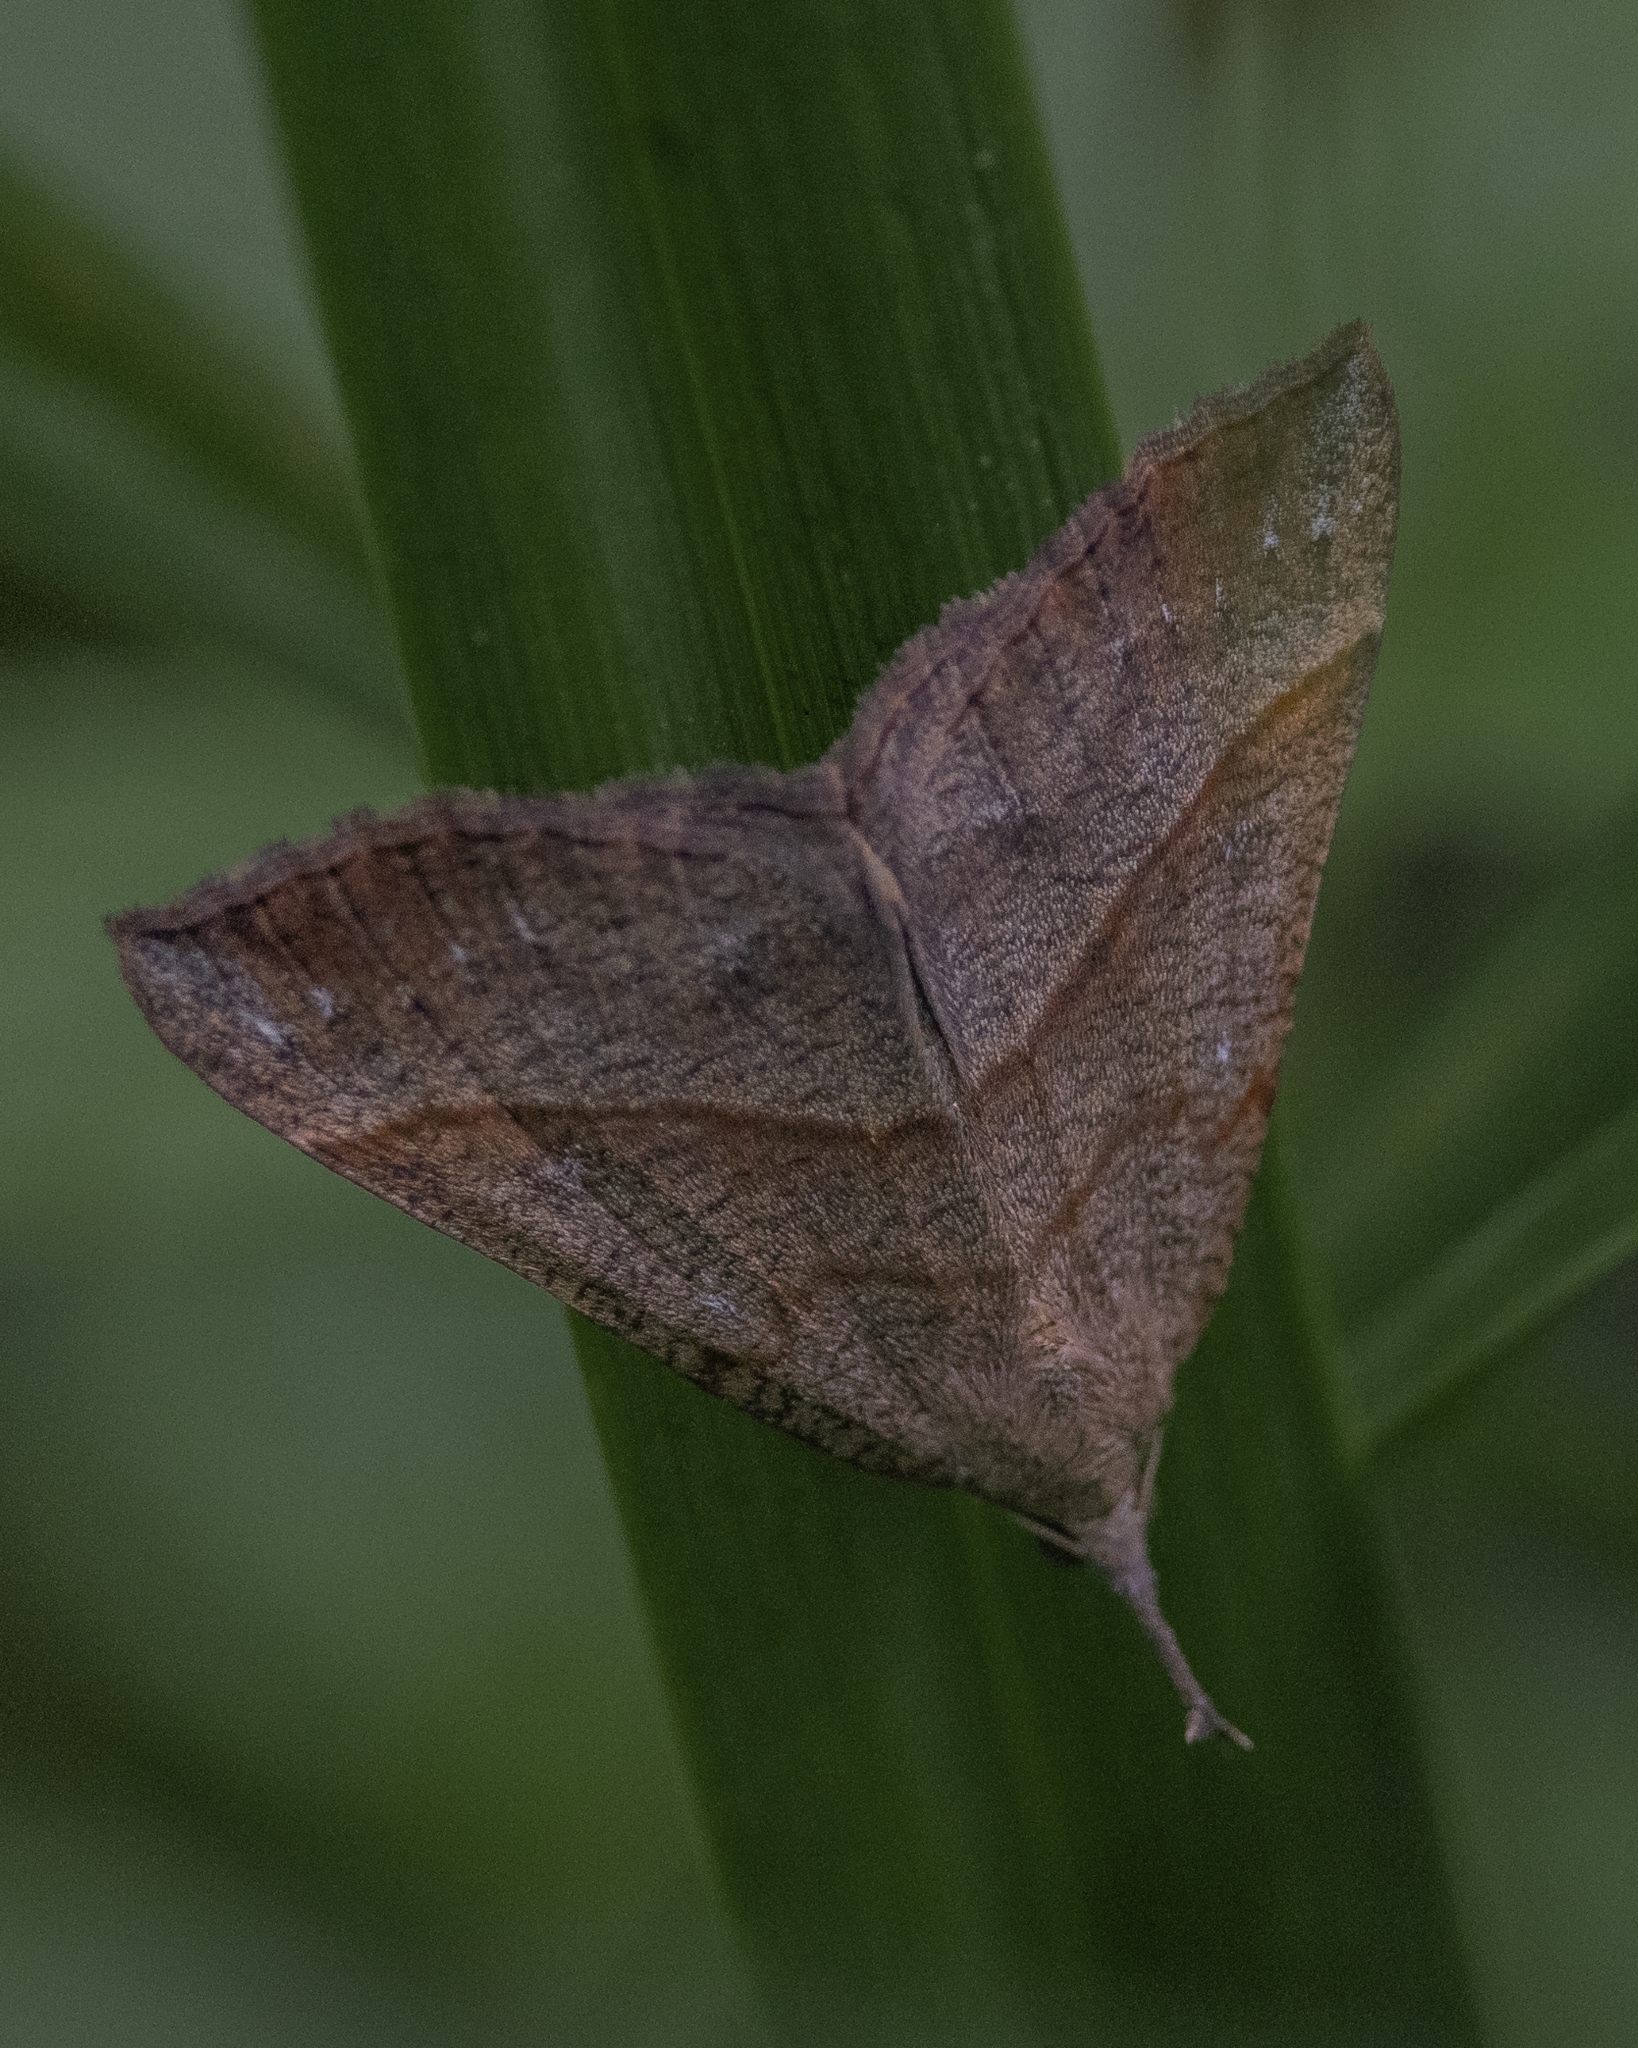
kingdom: Animalia
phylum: Arthropoda
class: Insecta
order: Lepidoptera
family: Erebidae
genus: Hypena
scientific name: Hypena proboscidalis
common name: Snout
